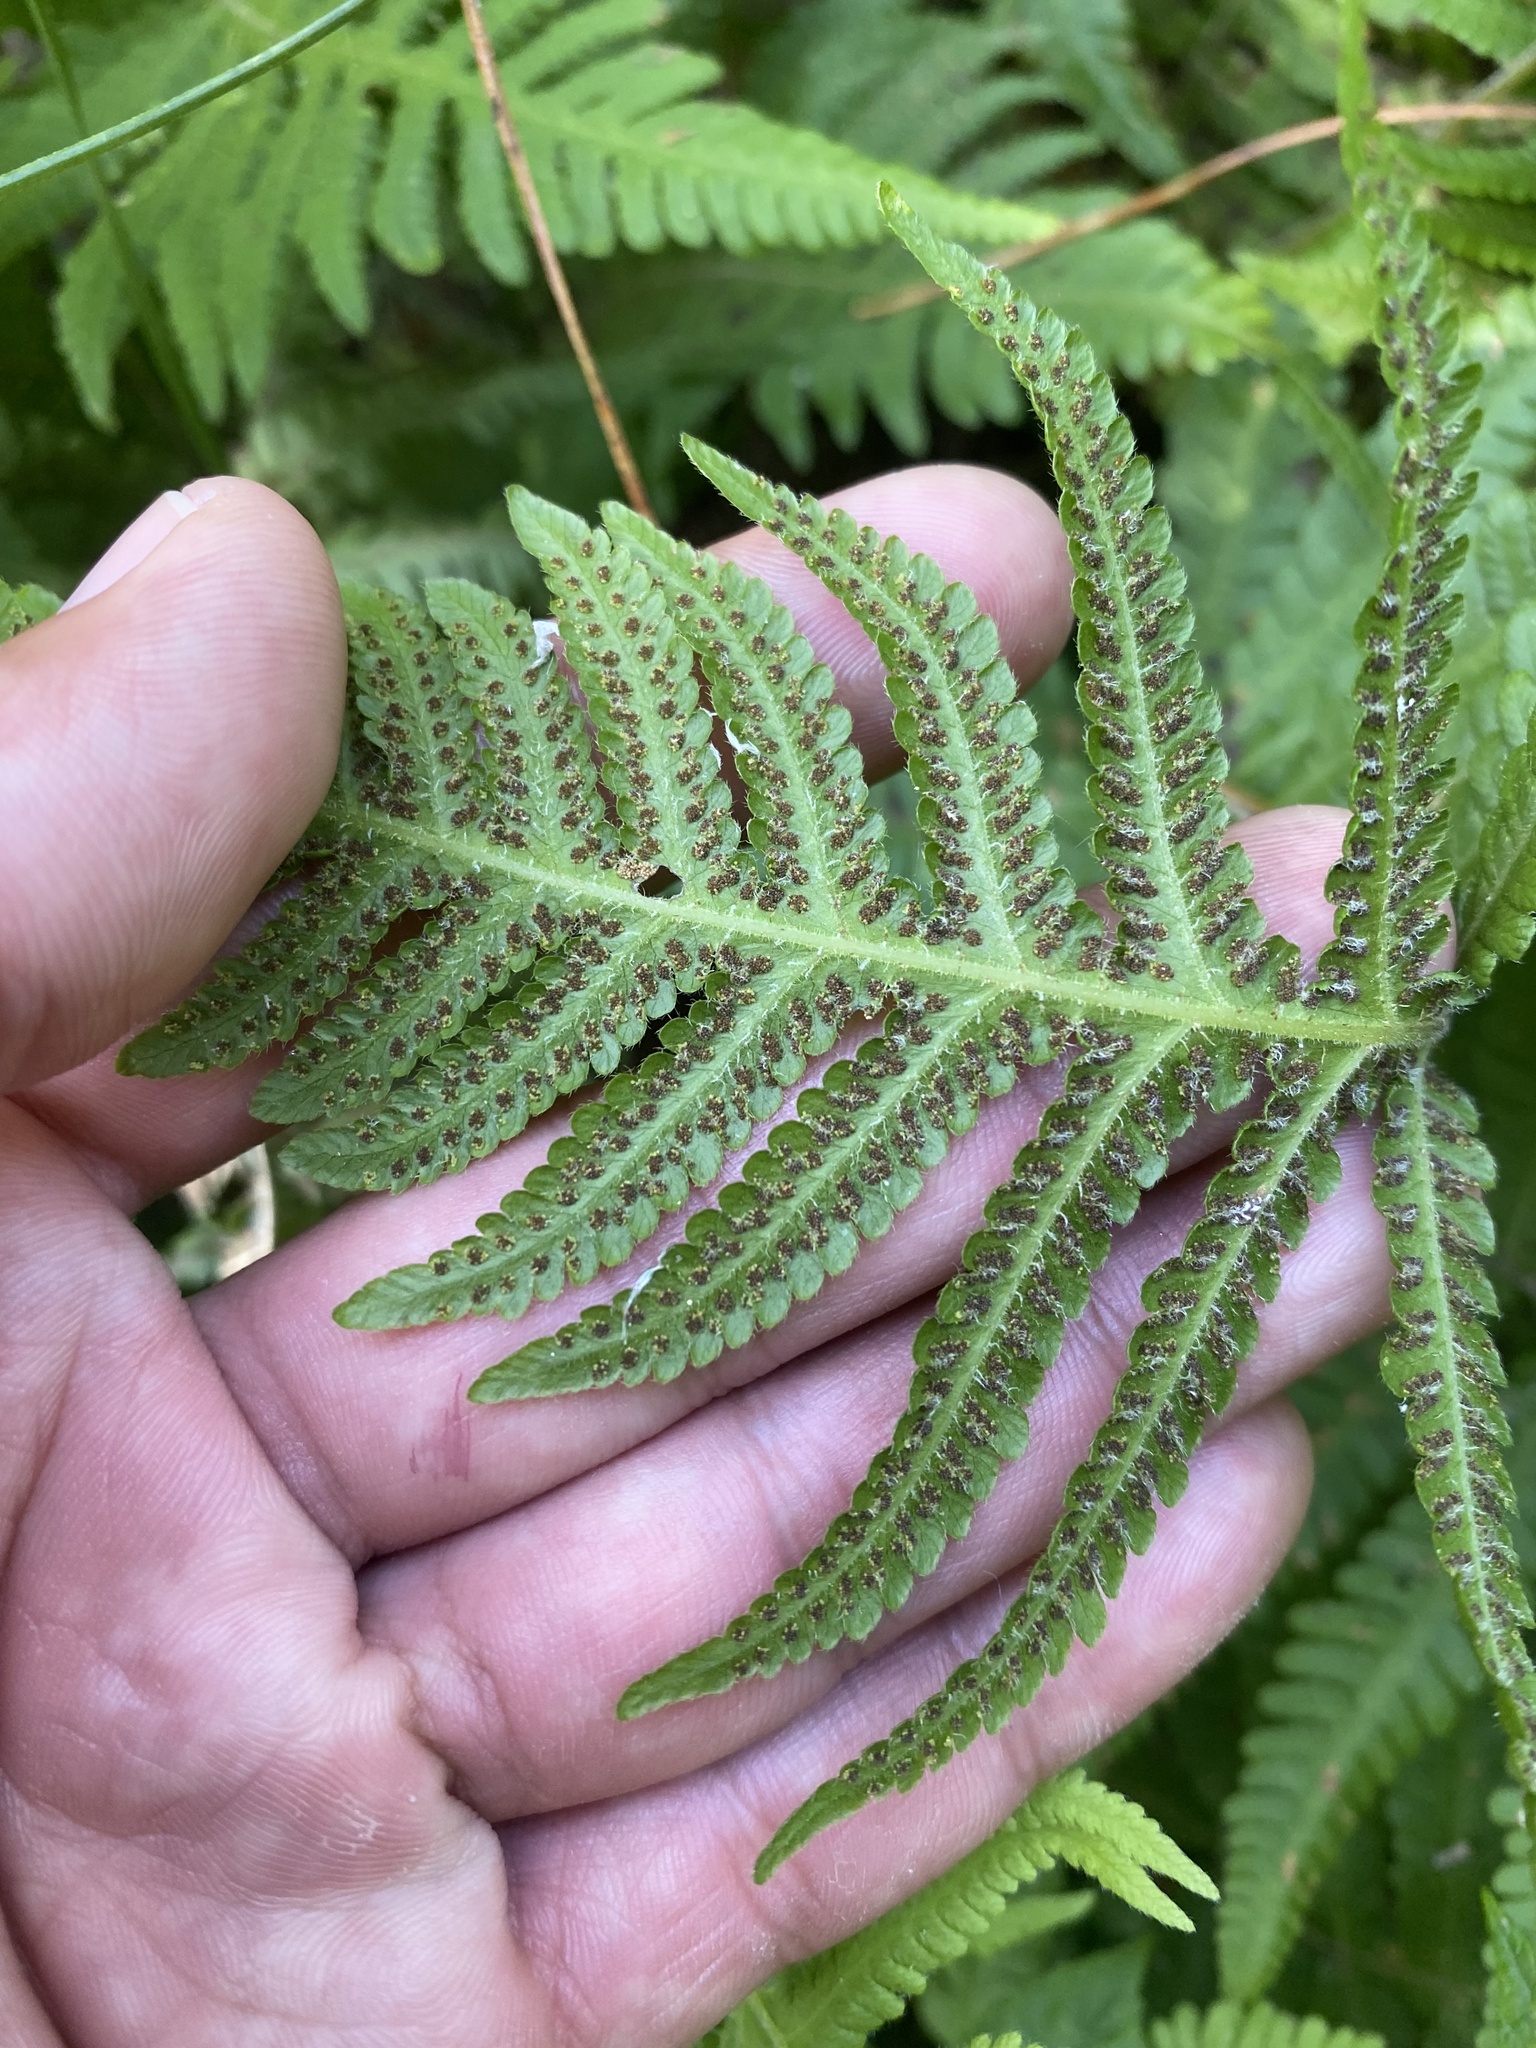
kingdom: Plantae
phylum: Tracheophyta
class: Polypodiopsida
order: Polypodiales
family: Thelypteridaceae
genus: Phegopteris
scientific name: Phegopteris connectilis
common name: Beech fern
